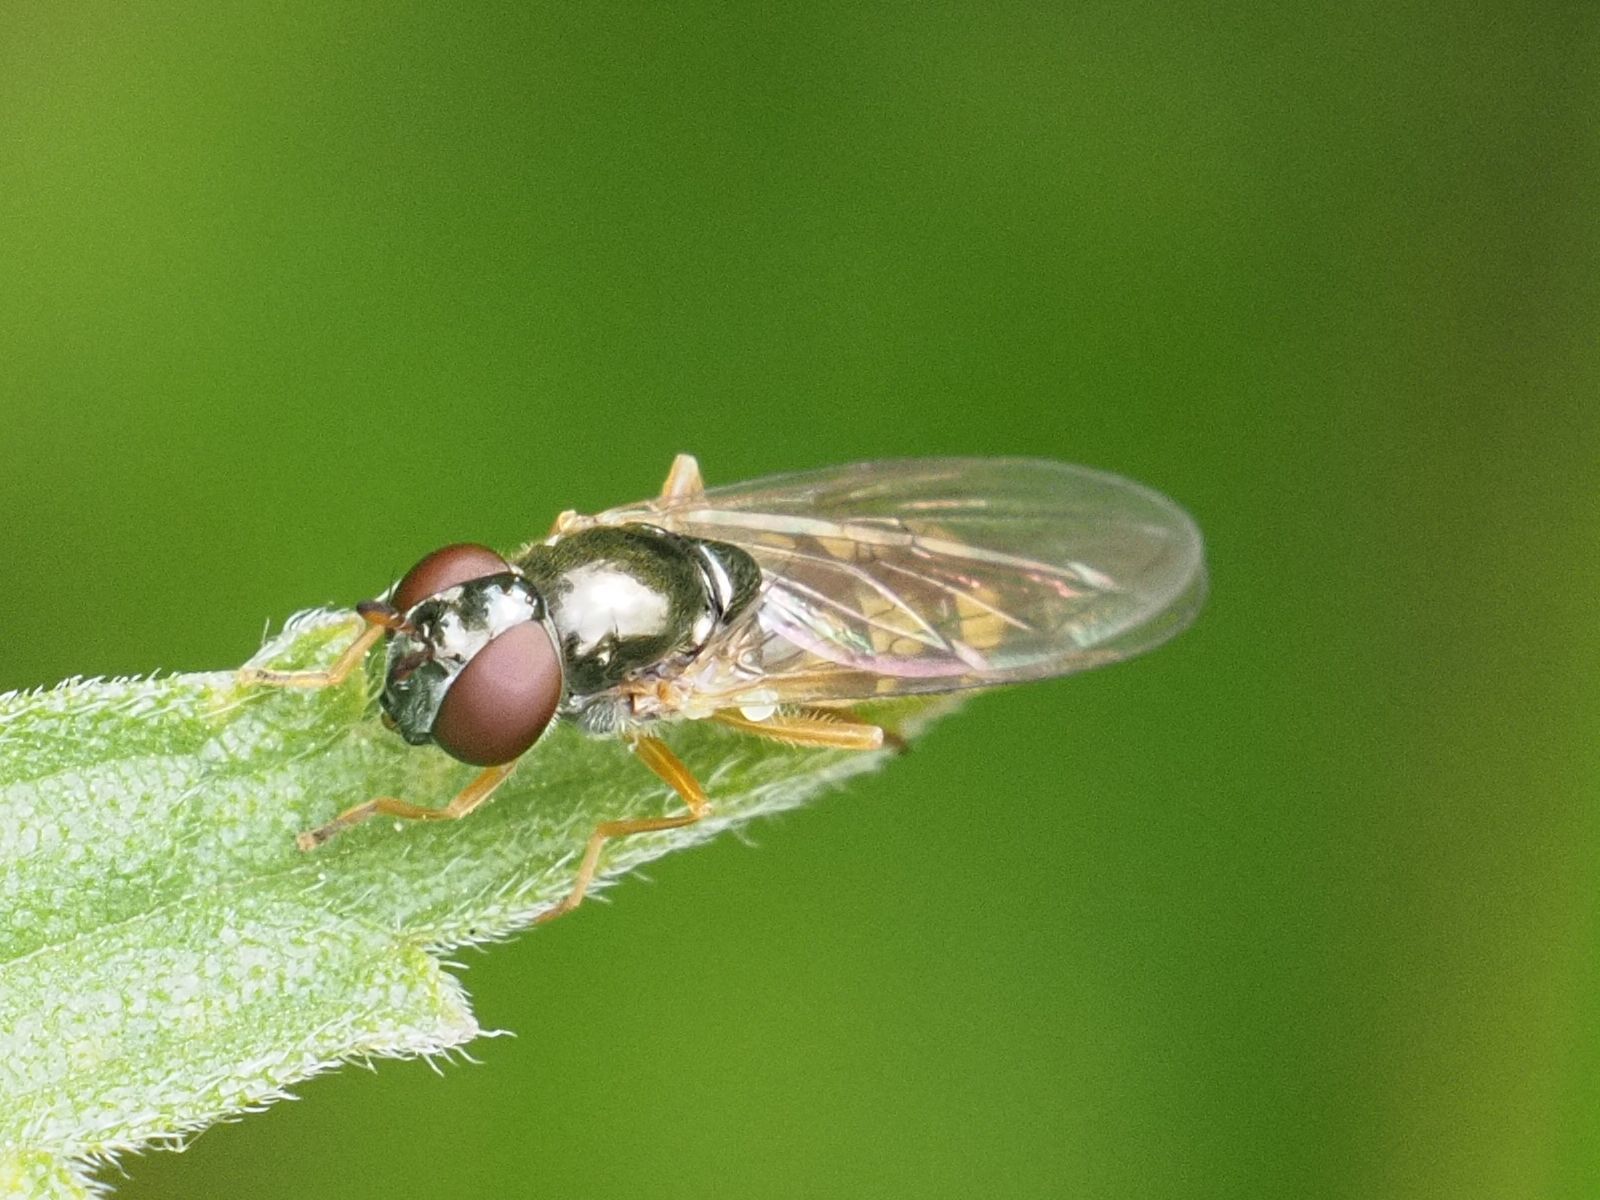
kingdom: Animalia
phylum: Arthropoda
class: Insecta
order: Diptera
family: Syrphidae
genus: Melanostoma
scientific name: Melanostoma mellina
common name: Hover fly
